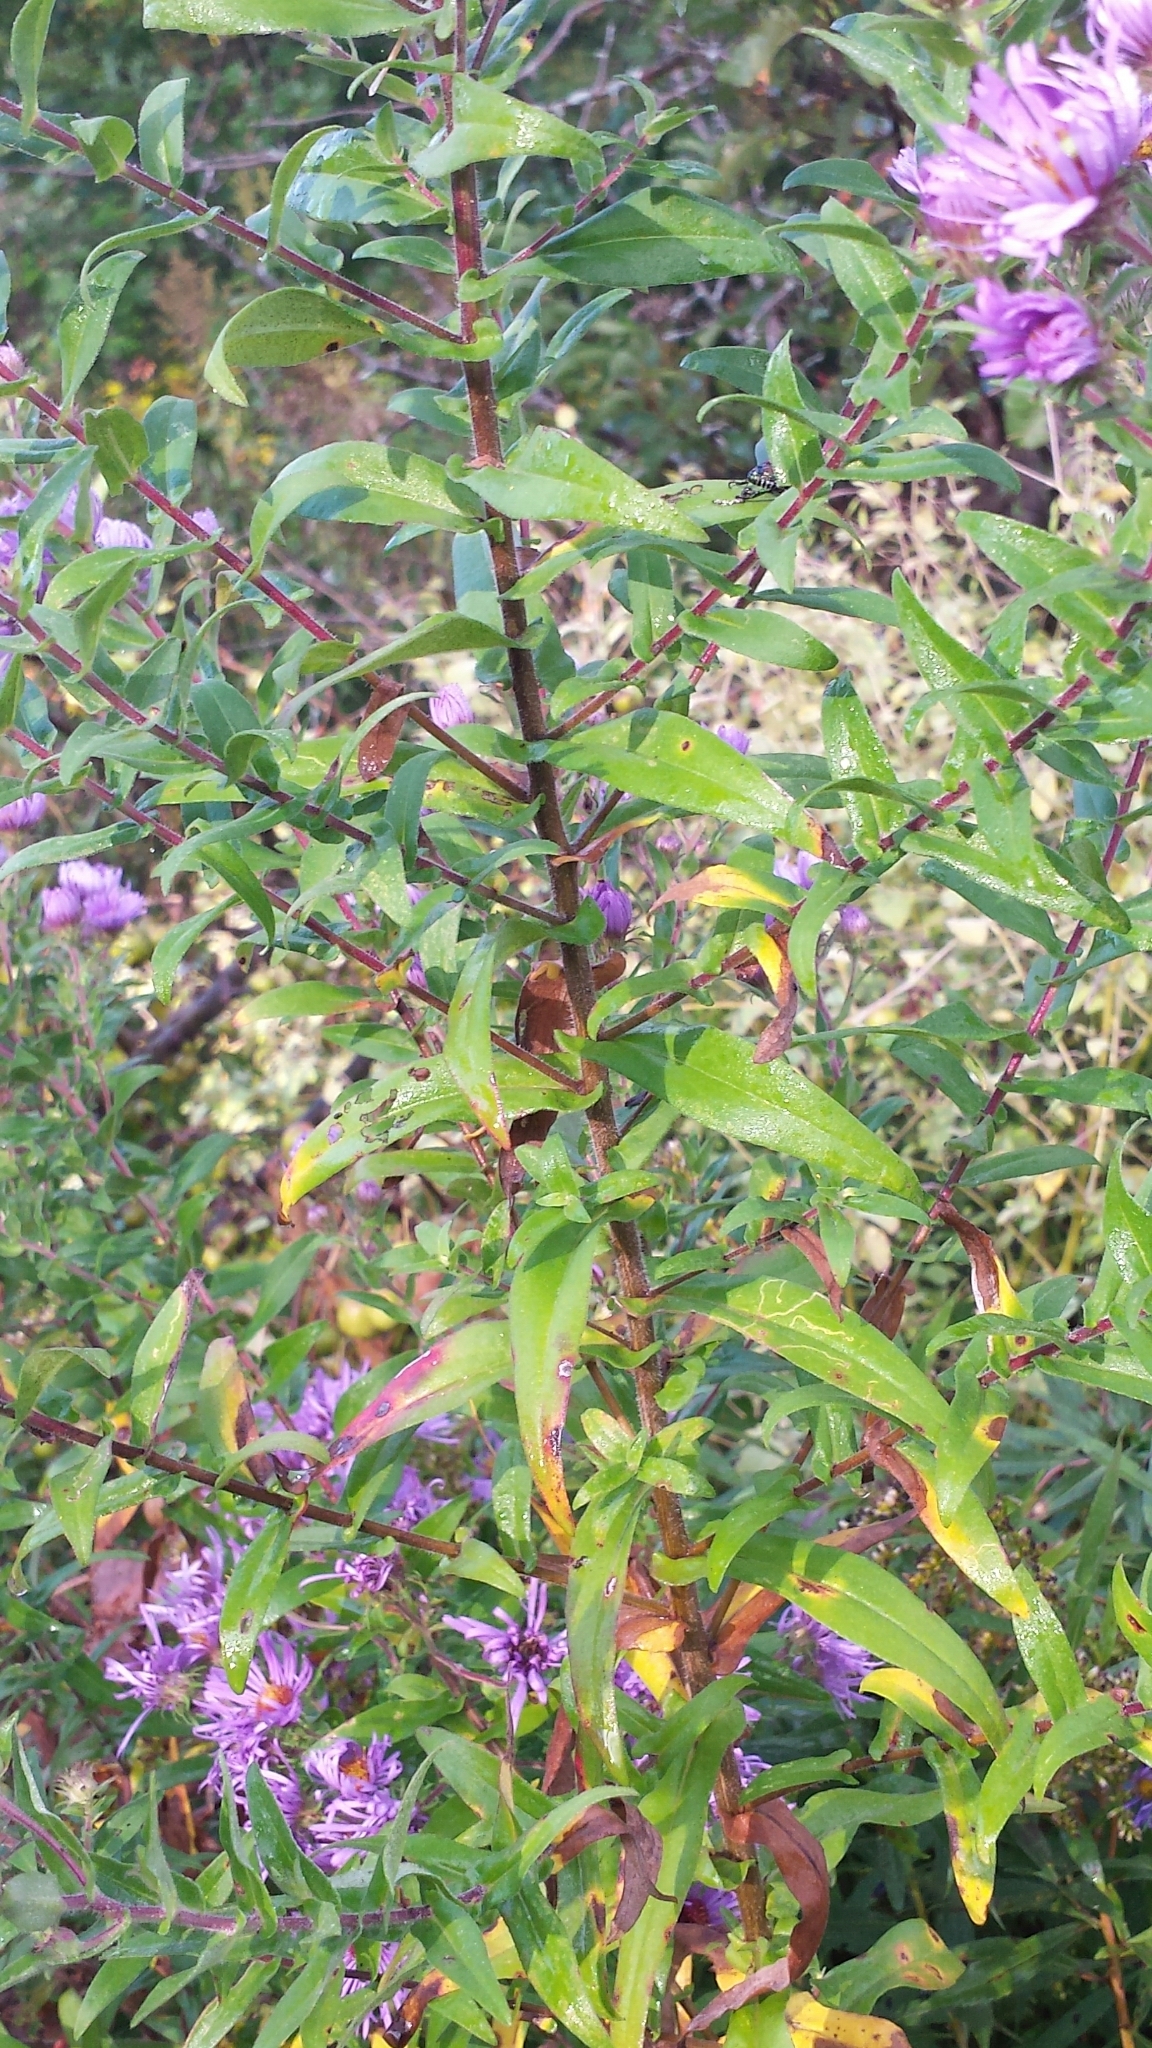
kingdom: Plantae
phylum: Tracheophyta
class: Magnoliopsida
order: Asterales
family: Asteraceae
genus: Symphyotrichum
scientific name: Symphyotrichum novae-angliae
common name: Michaelmas daisy
